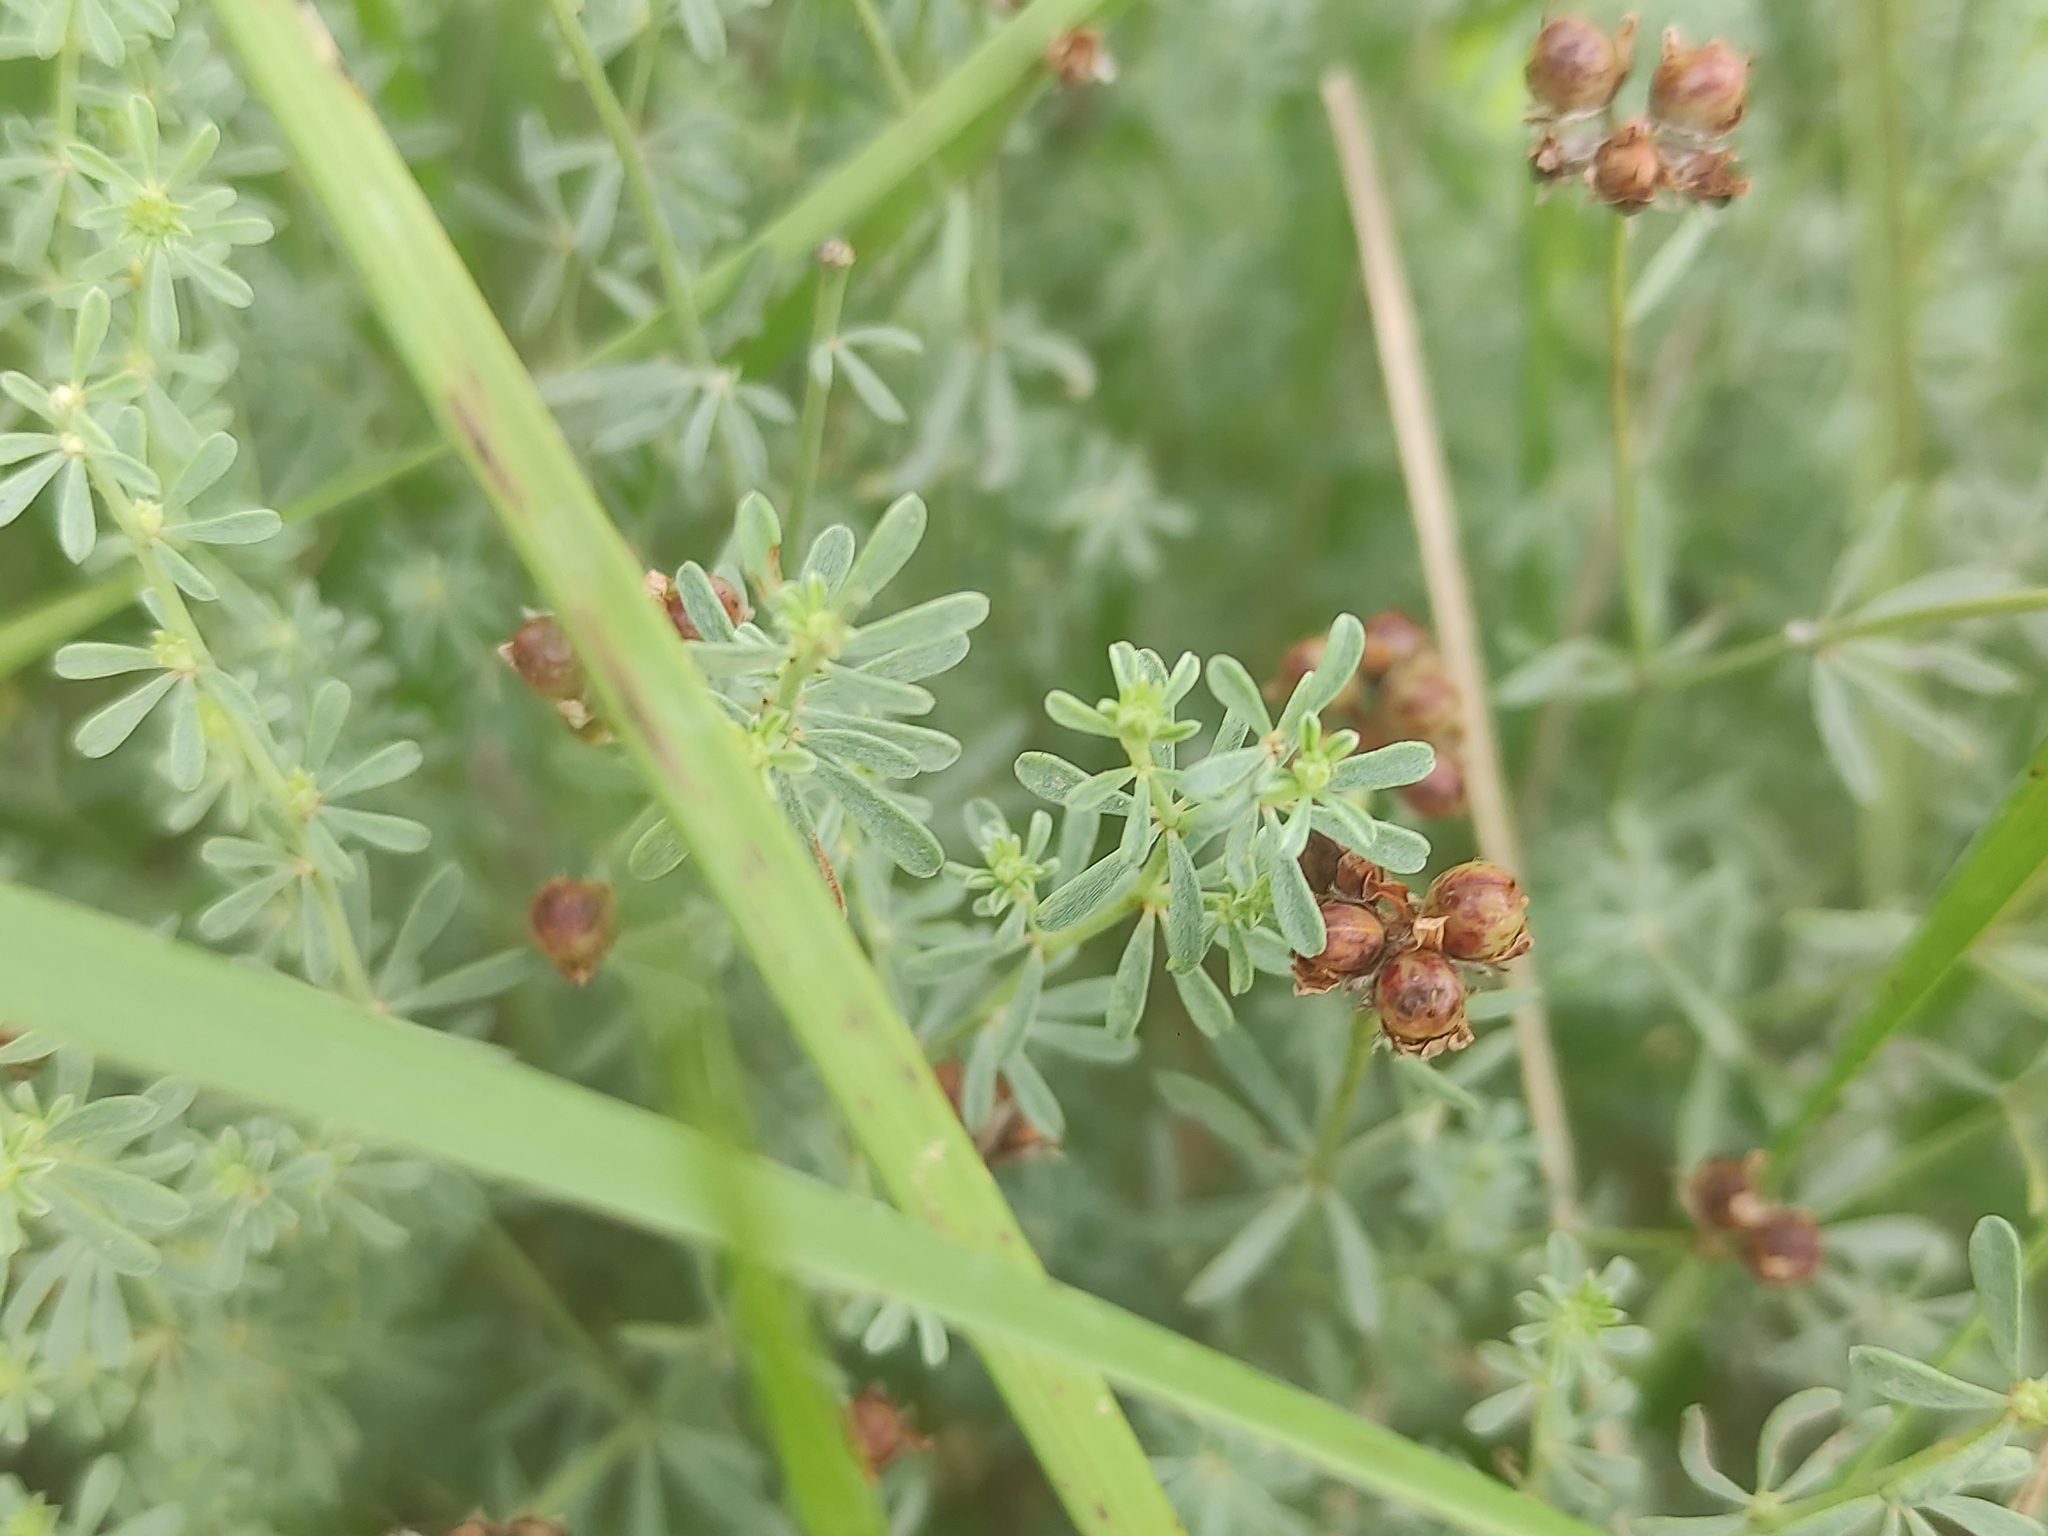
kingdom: Plantae
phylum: Tracheophyta
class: Magnoliopsida
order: Fabales
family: Fabaceae
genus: Lotus
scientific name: Lotus dorycnium
